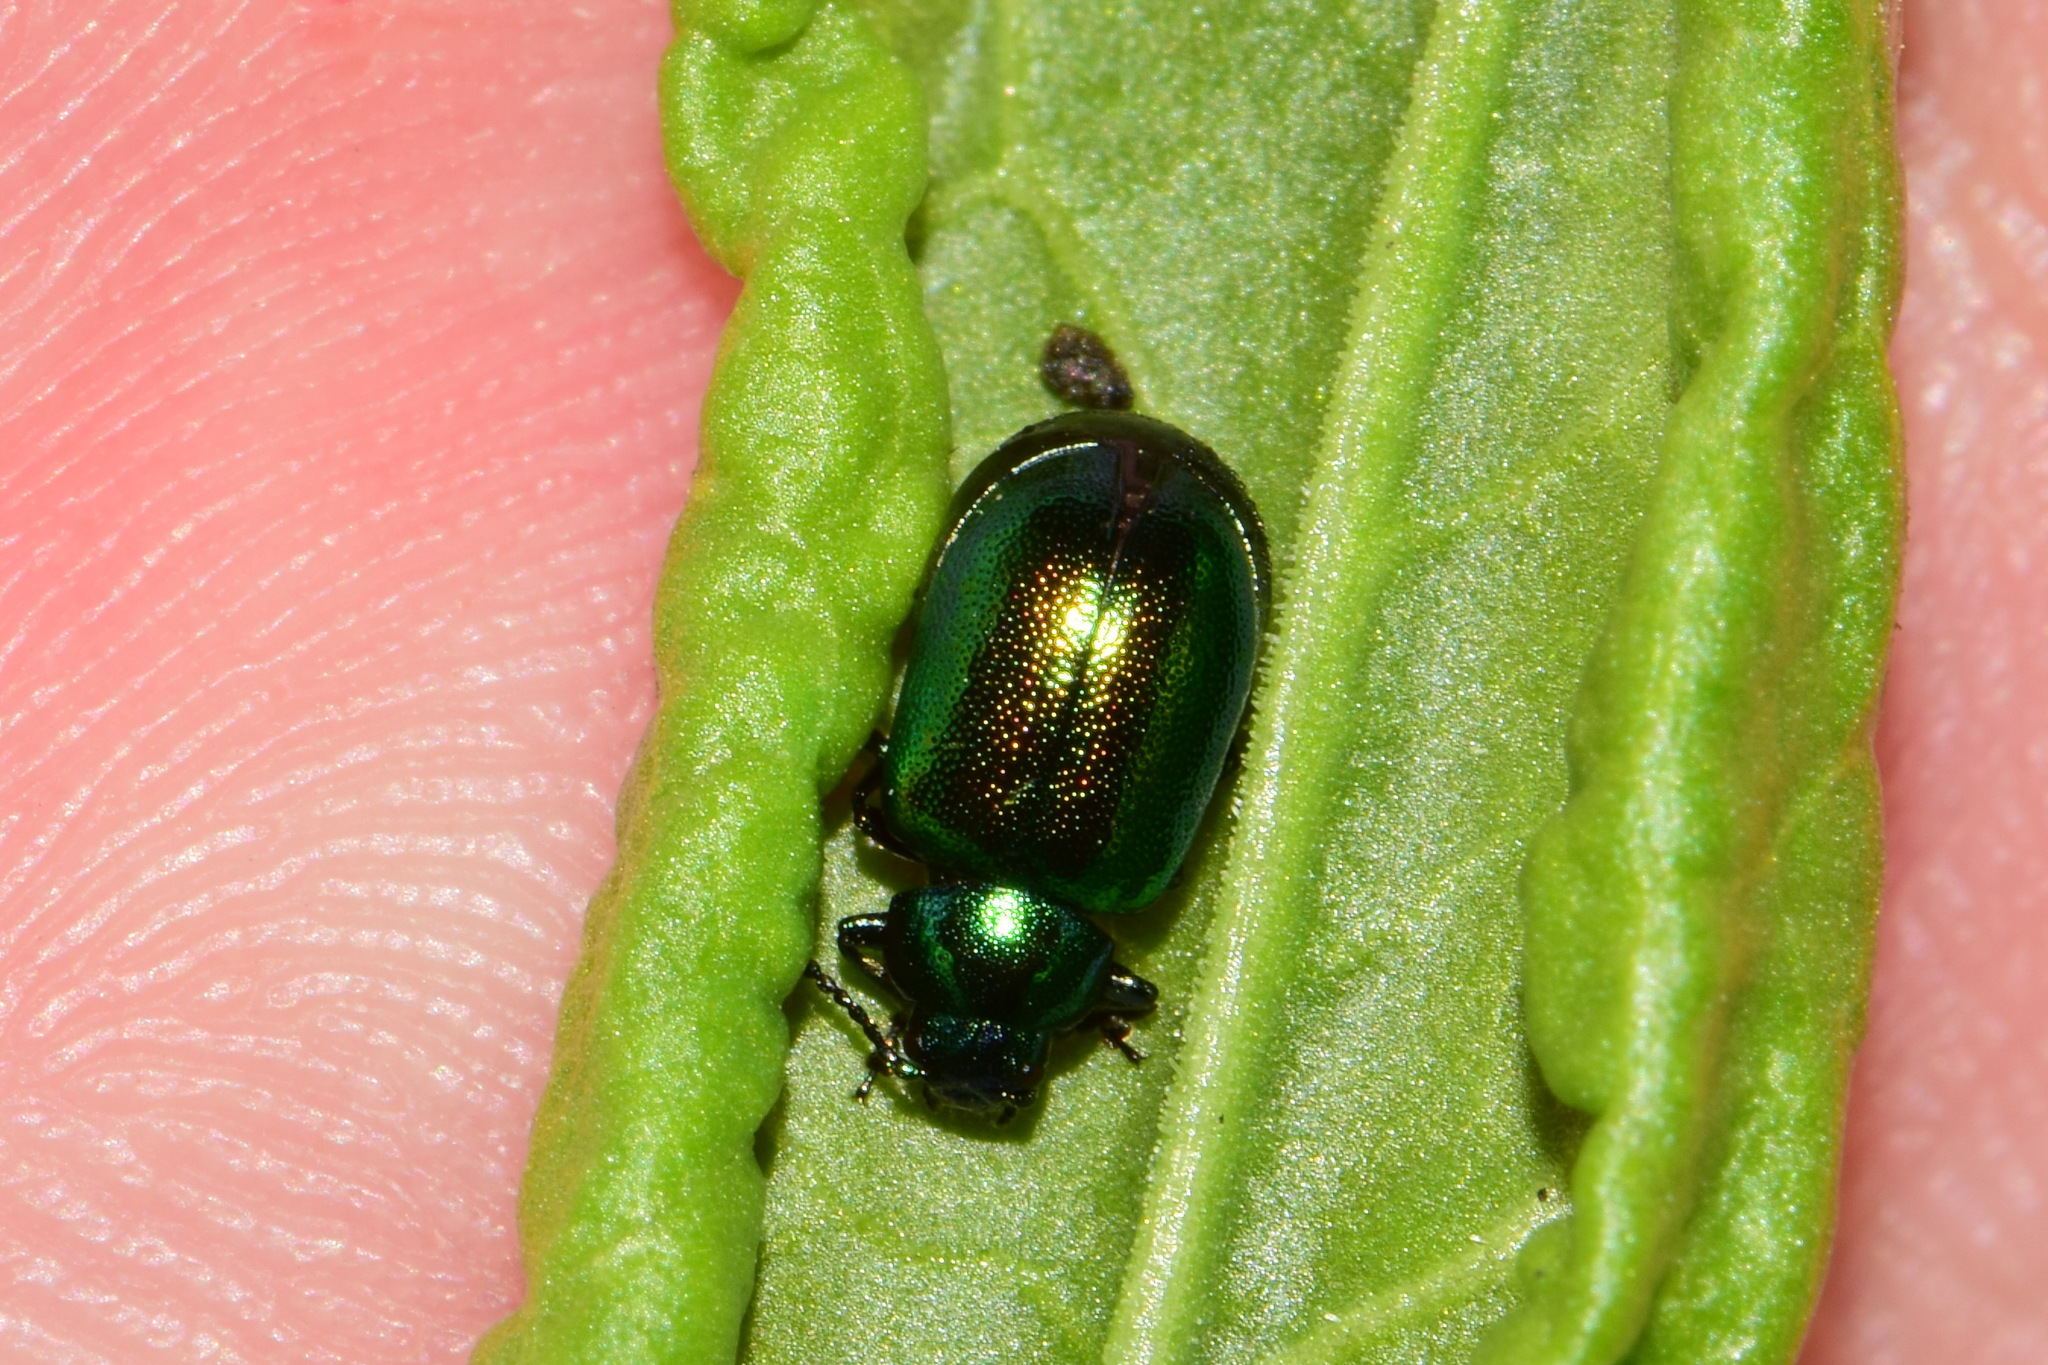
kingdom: Animalia
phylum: Arthropoda
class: Insecta
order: Coleoptera
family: Chrysomelidae
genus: Gastrophysa
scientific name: Gastrophysa viridula
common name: Green dock beetle
